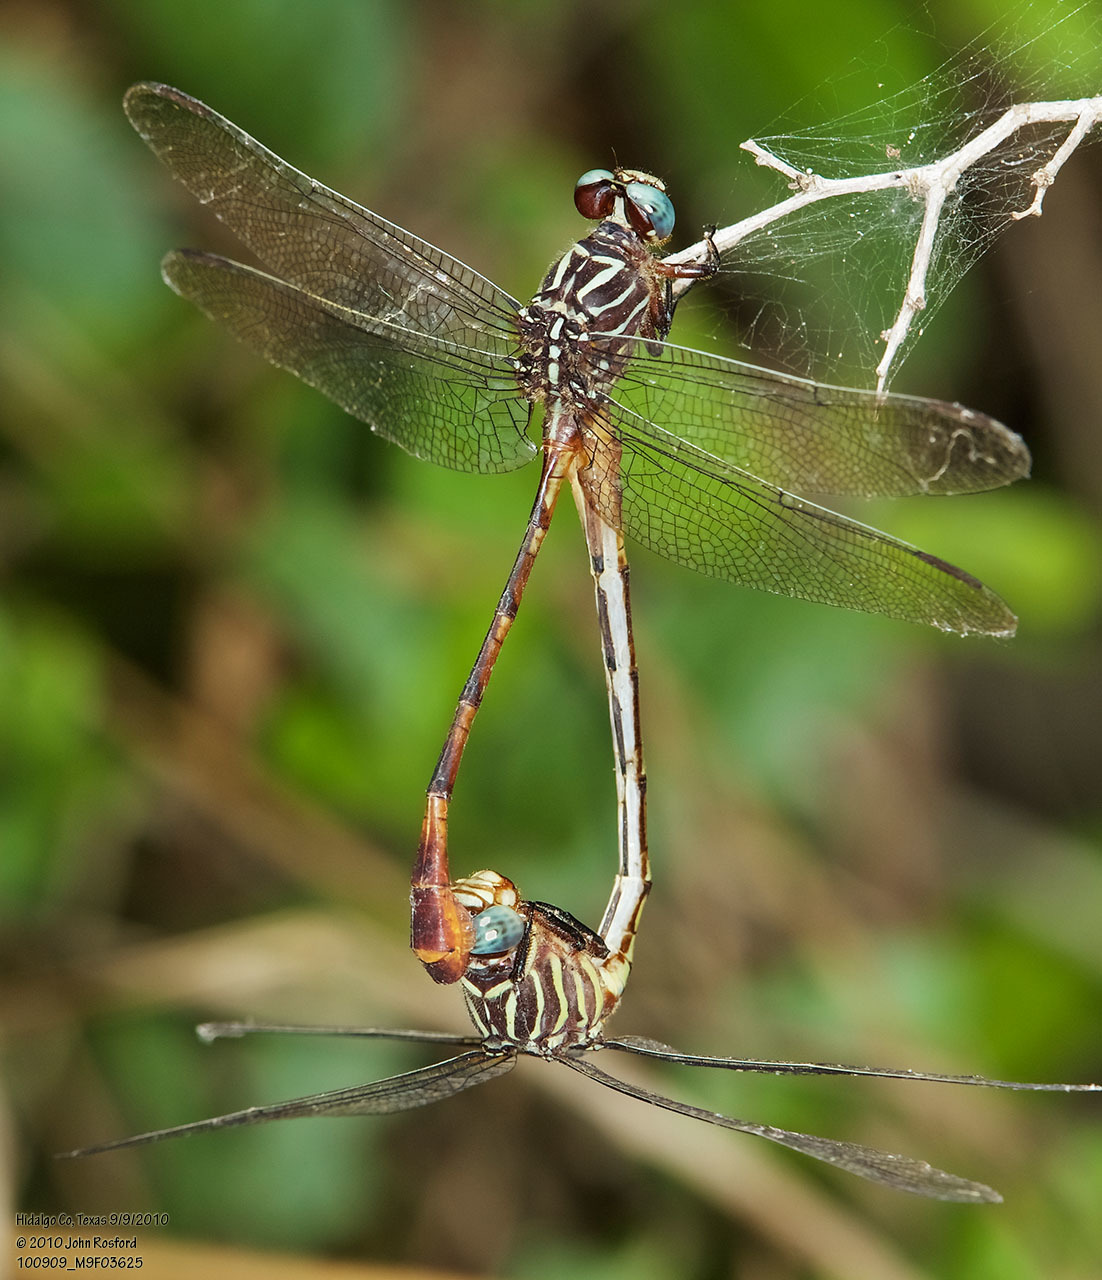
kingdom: Animalia
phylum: Arthropoda
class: Insecta
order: Odonata
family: Gomphidae
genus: Aphylla
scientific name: Aphylla protracta
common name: Narrow-striped forceptail
